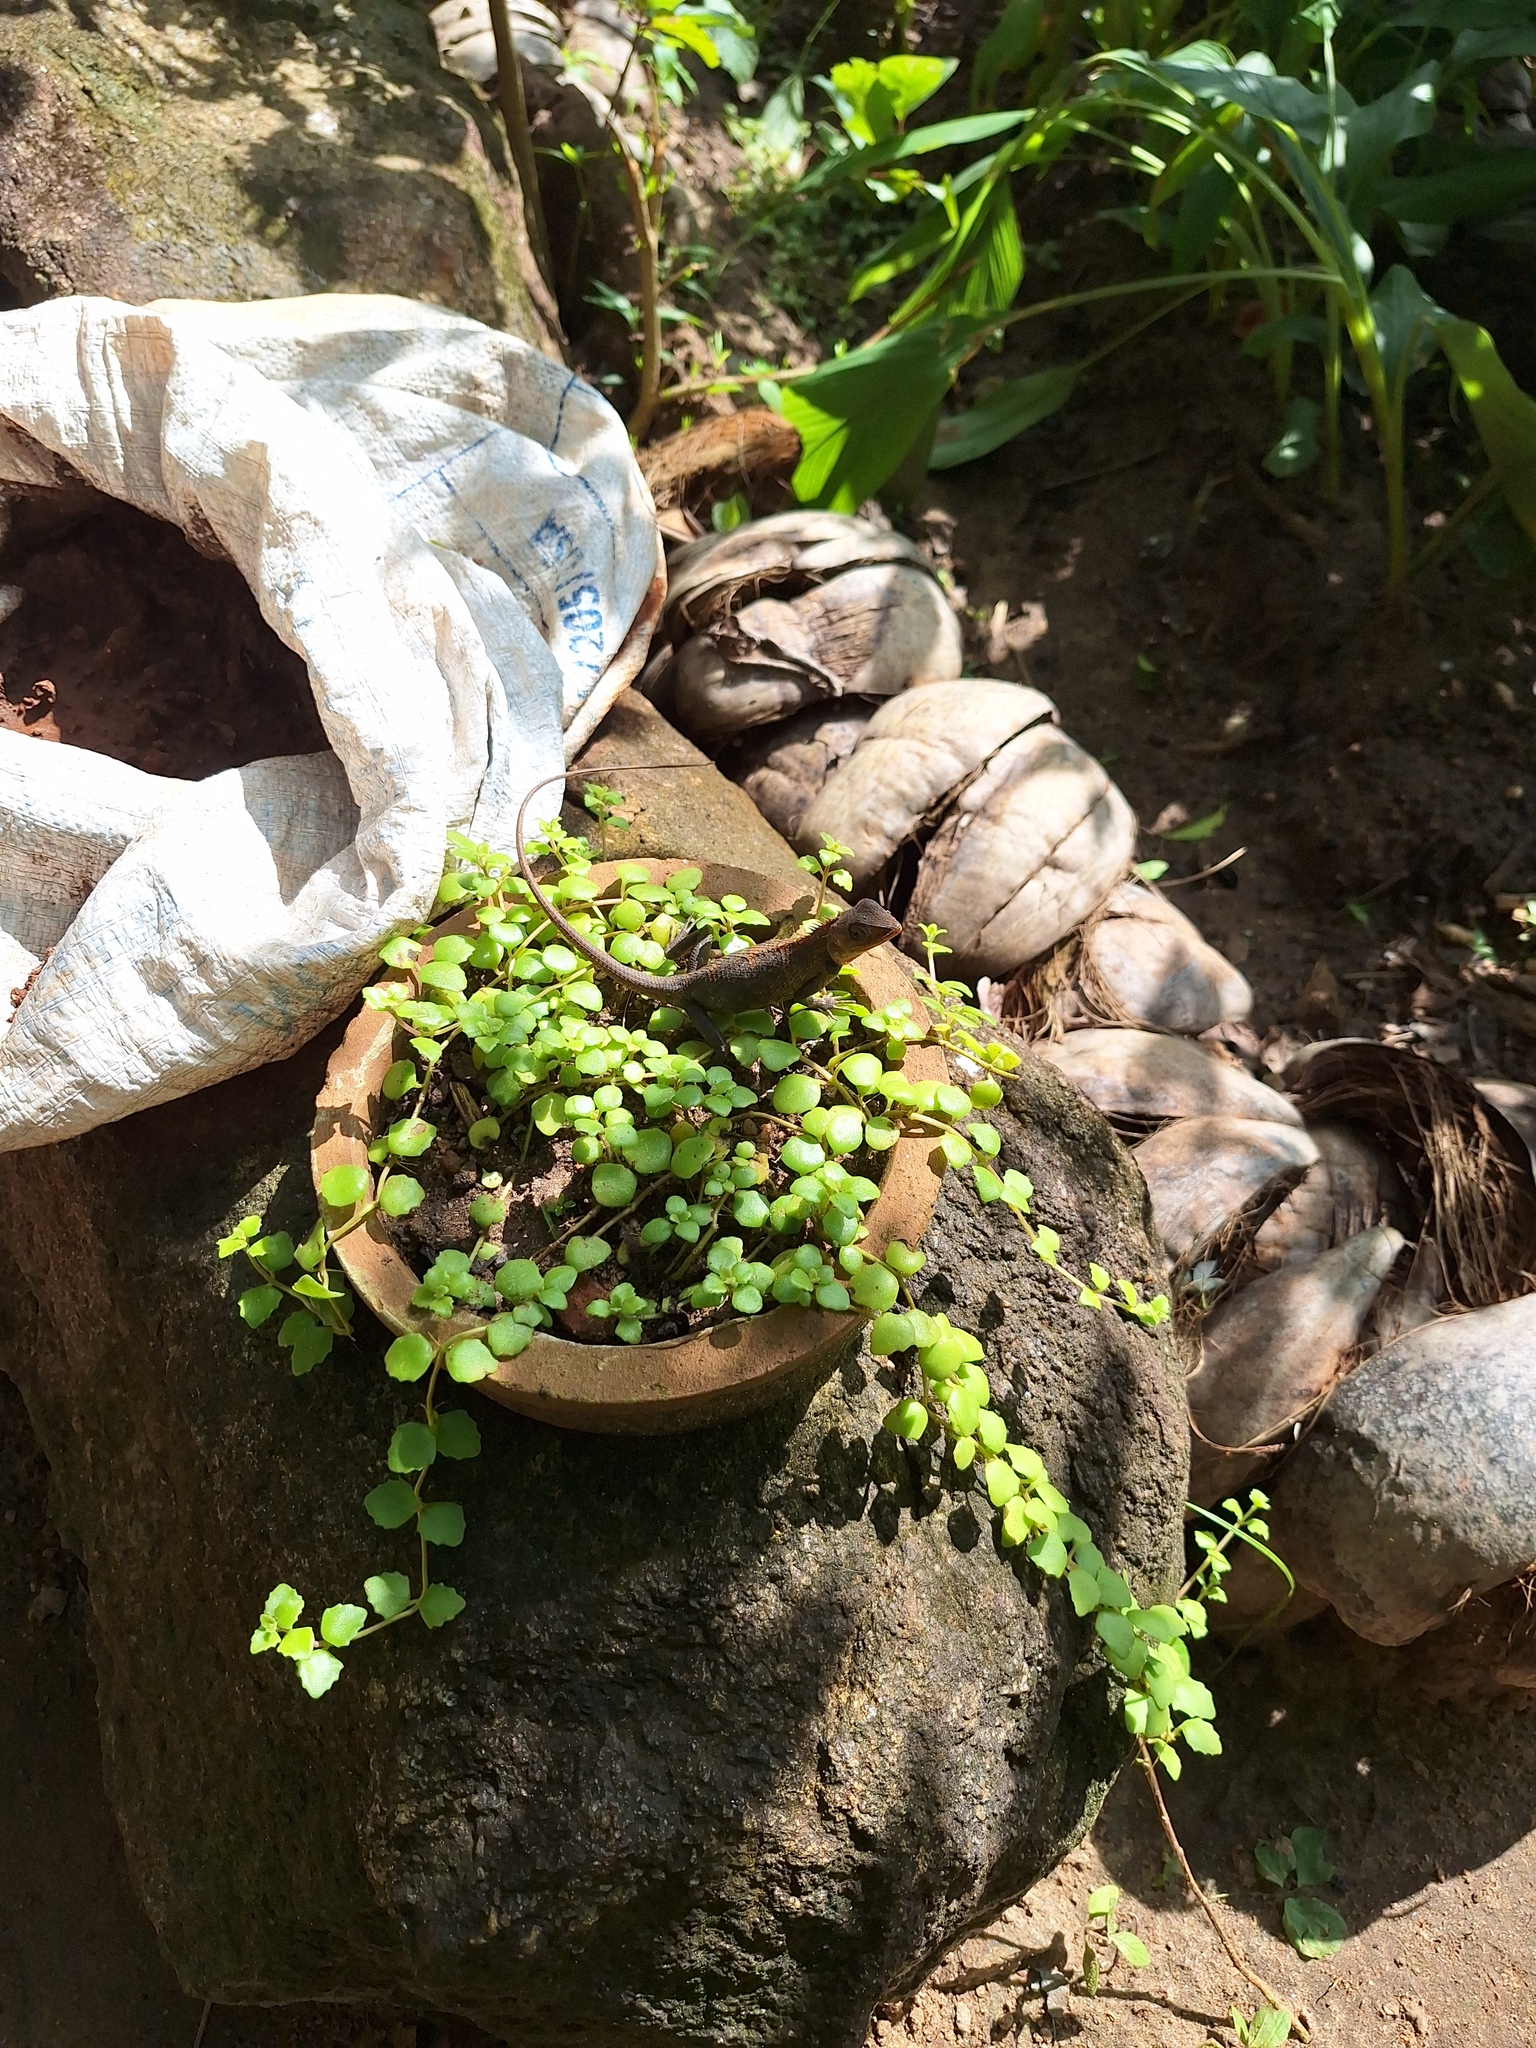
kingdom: Animalia
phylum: Chordata
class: Squamata
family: Agamidae
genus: Calotes
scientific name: Calotes versicolor
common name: Oriental garden lizard
